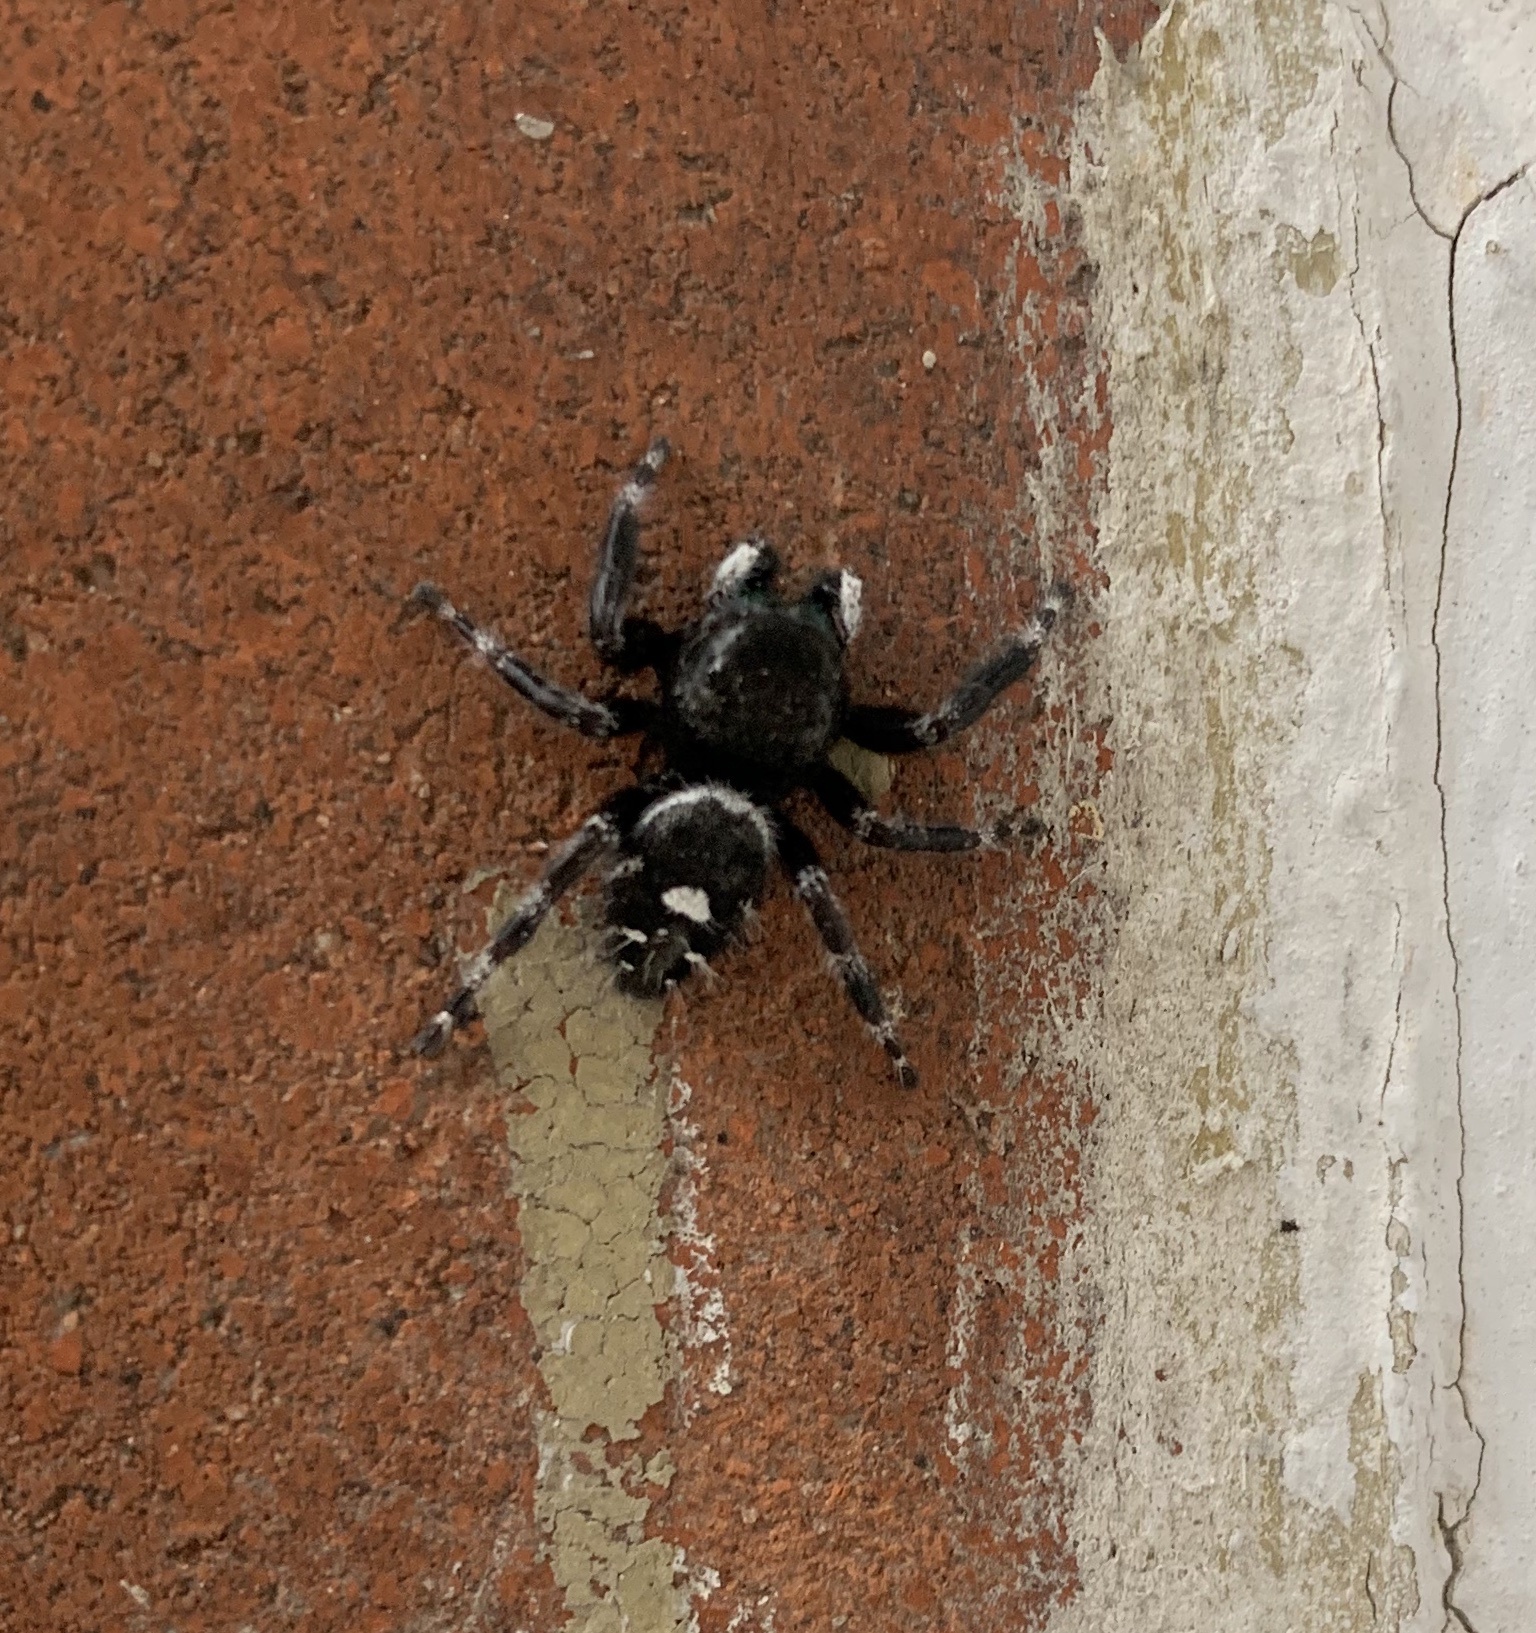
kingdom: Animalia
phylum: Arthropoda
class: Arachnida
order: Araneae
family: Salticidae
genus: Phidippus
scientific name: Phidippus audax
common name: Bold jumper
